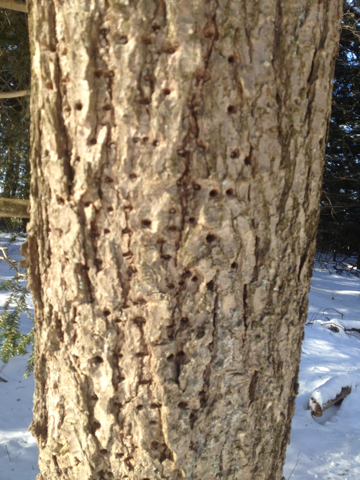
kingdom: Animalia
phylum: Chordata
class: Aves
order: Piciformes
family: Picidae
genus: Sphyrapicus
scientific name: Sphyrapicus varius
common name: Yellow-bellied sapsucker
